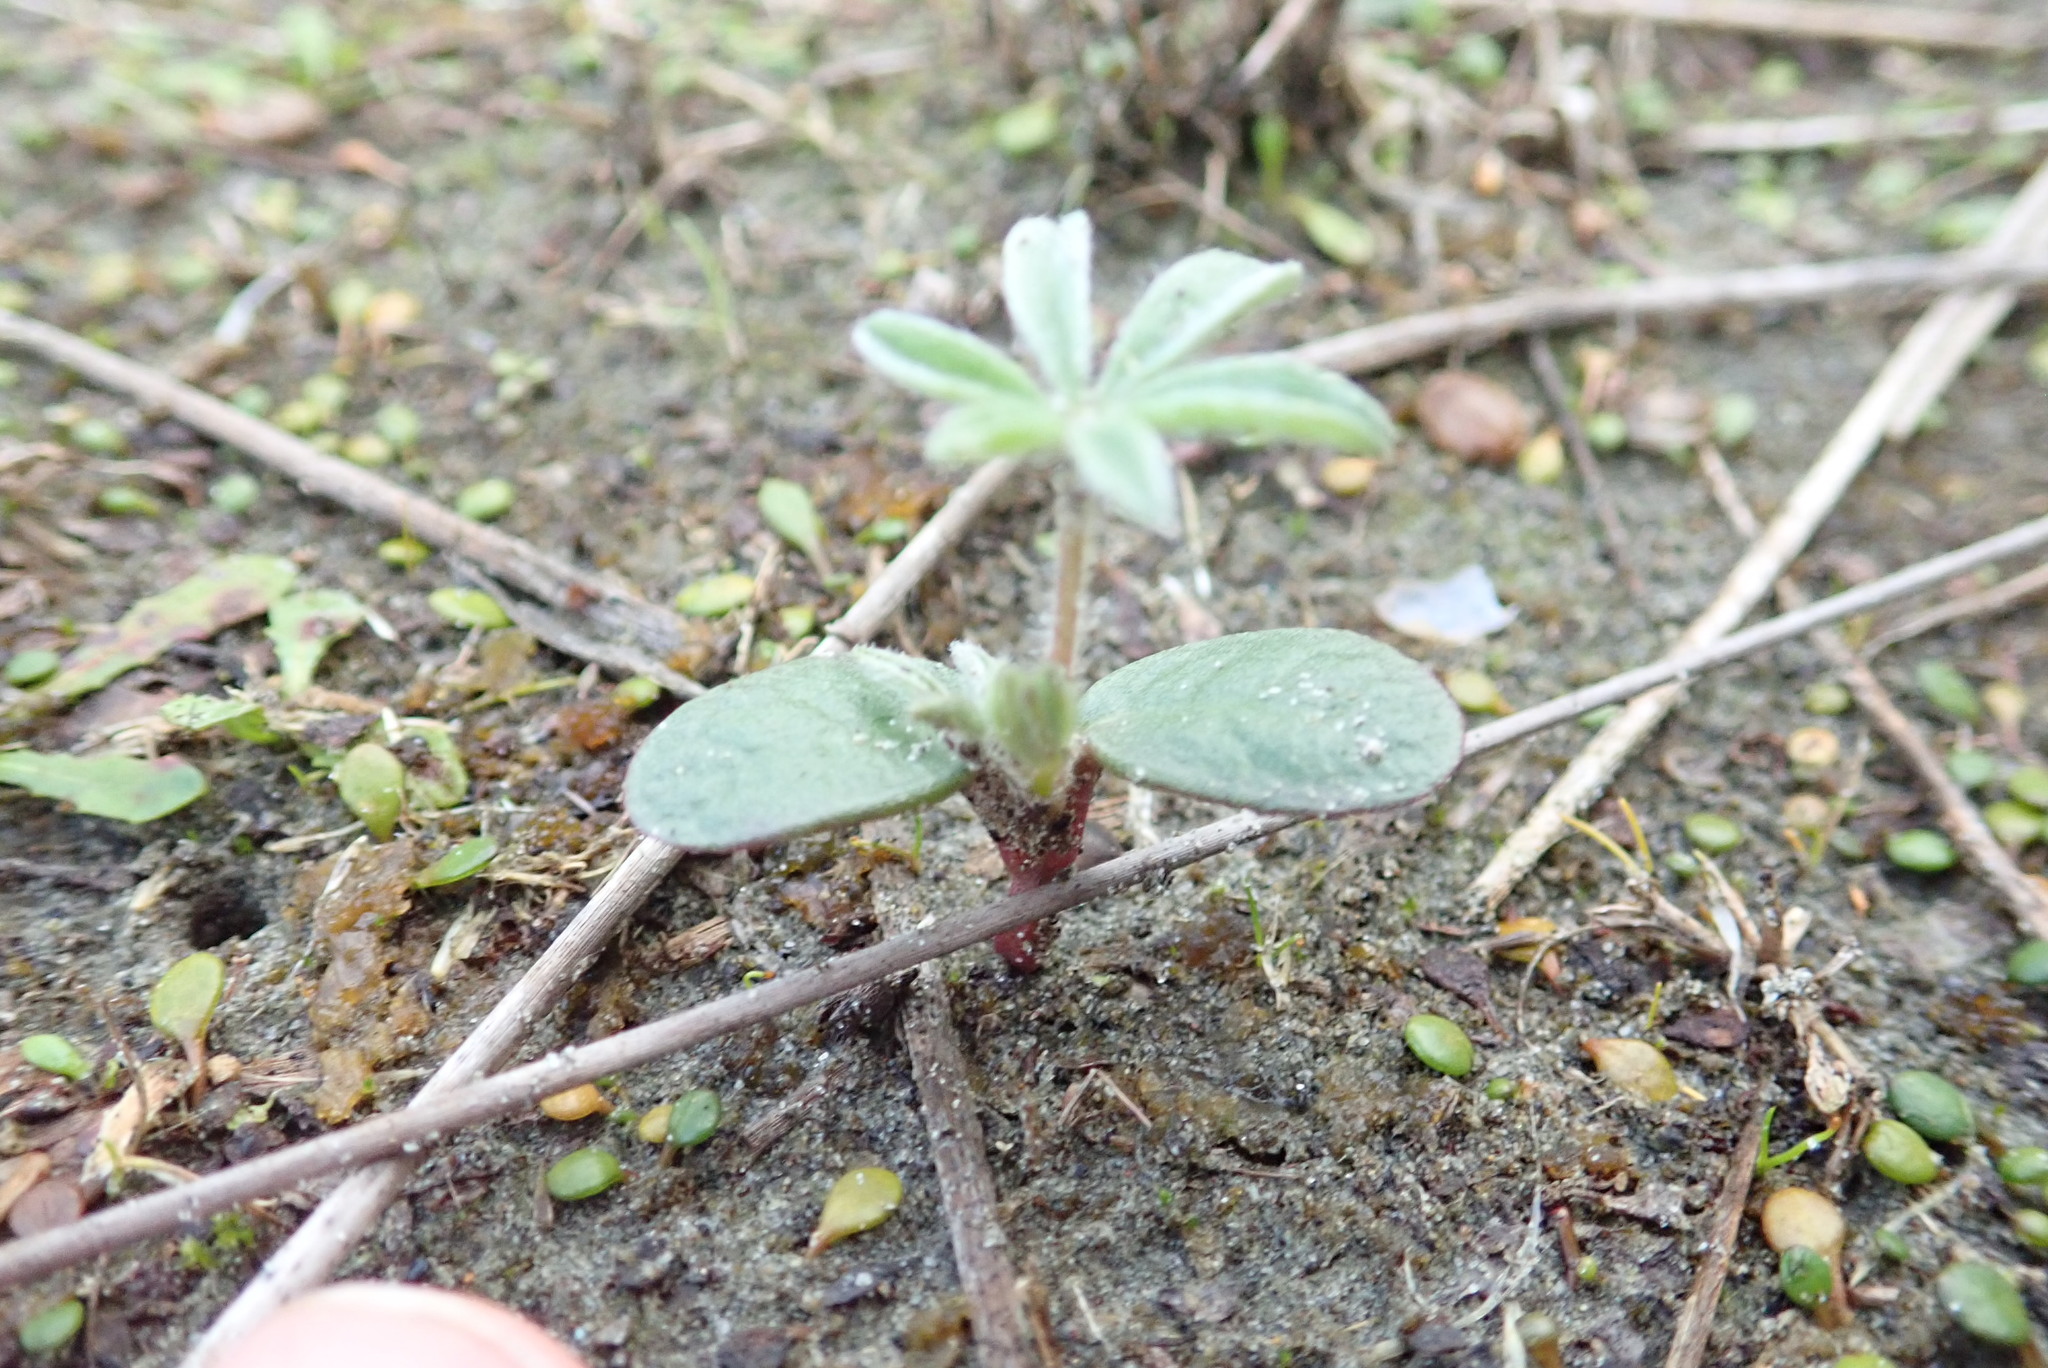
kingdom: Plantae
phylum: Tracheophyta
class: Magnoliopsida
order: Fabales
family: Fabaceae
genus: Lupinus
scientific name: Lupinus arboreus
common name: Yellow bush lupine
